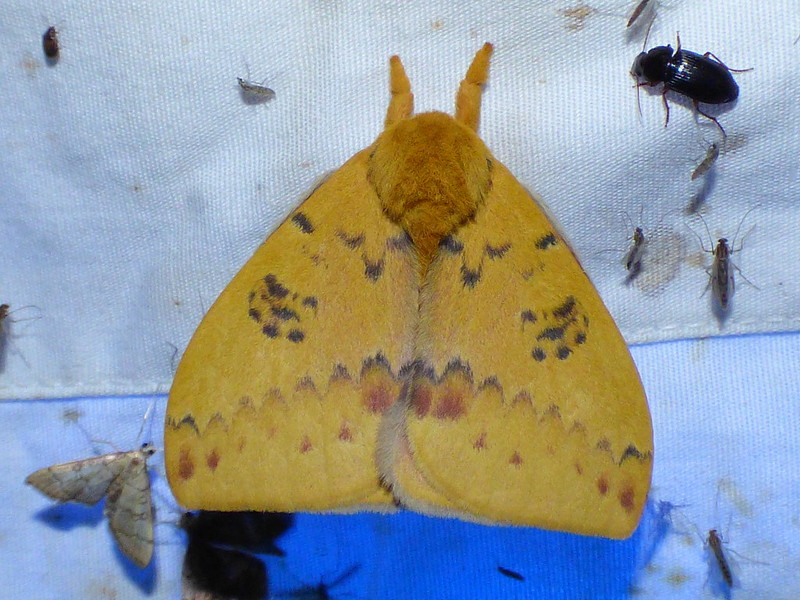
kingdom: Animalia
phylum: Arthropoda
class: Insecta
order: Lepidoptera
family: Saturniidae
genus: Automeris
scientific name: Automeris io
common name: Io moth
